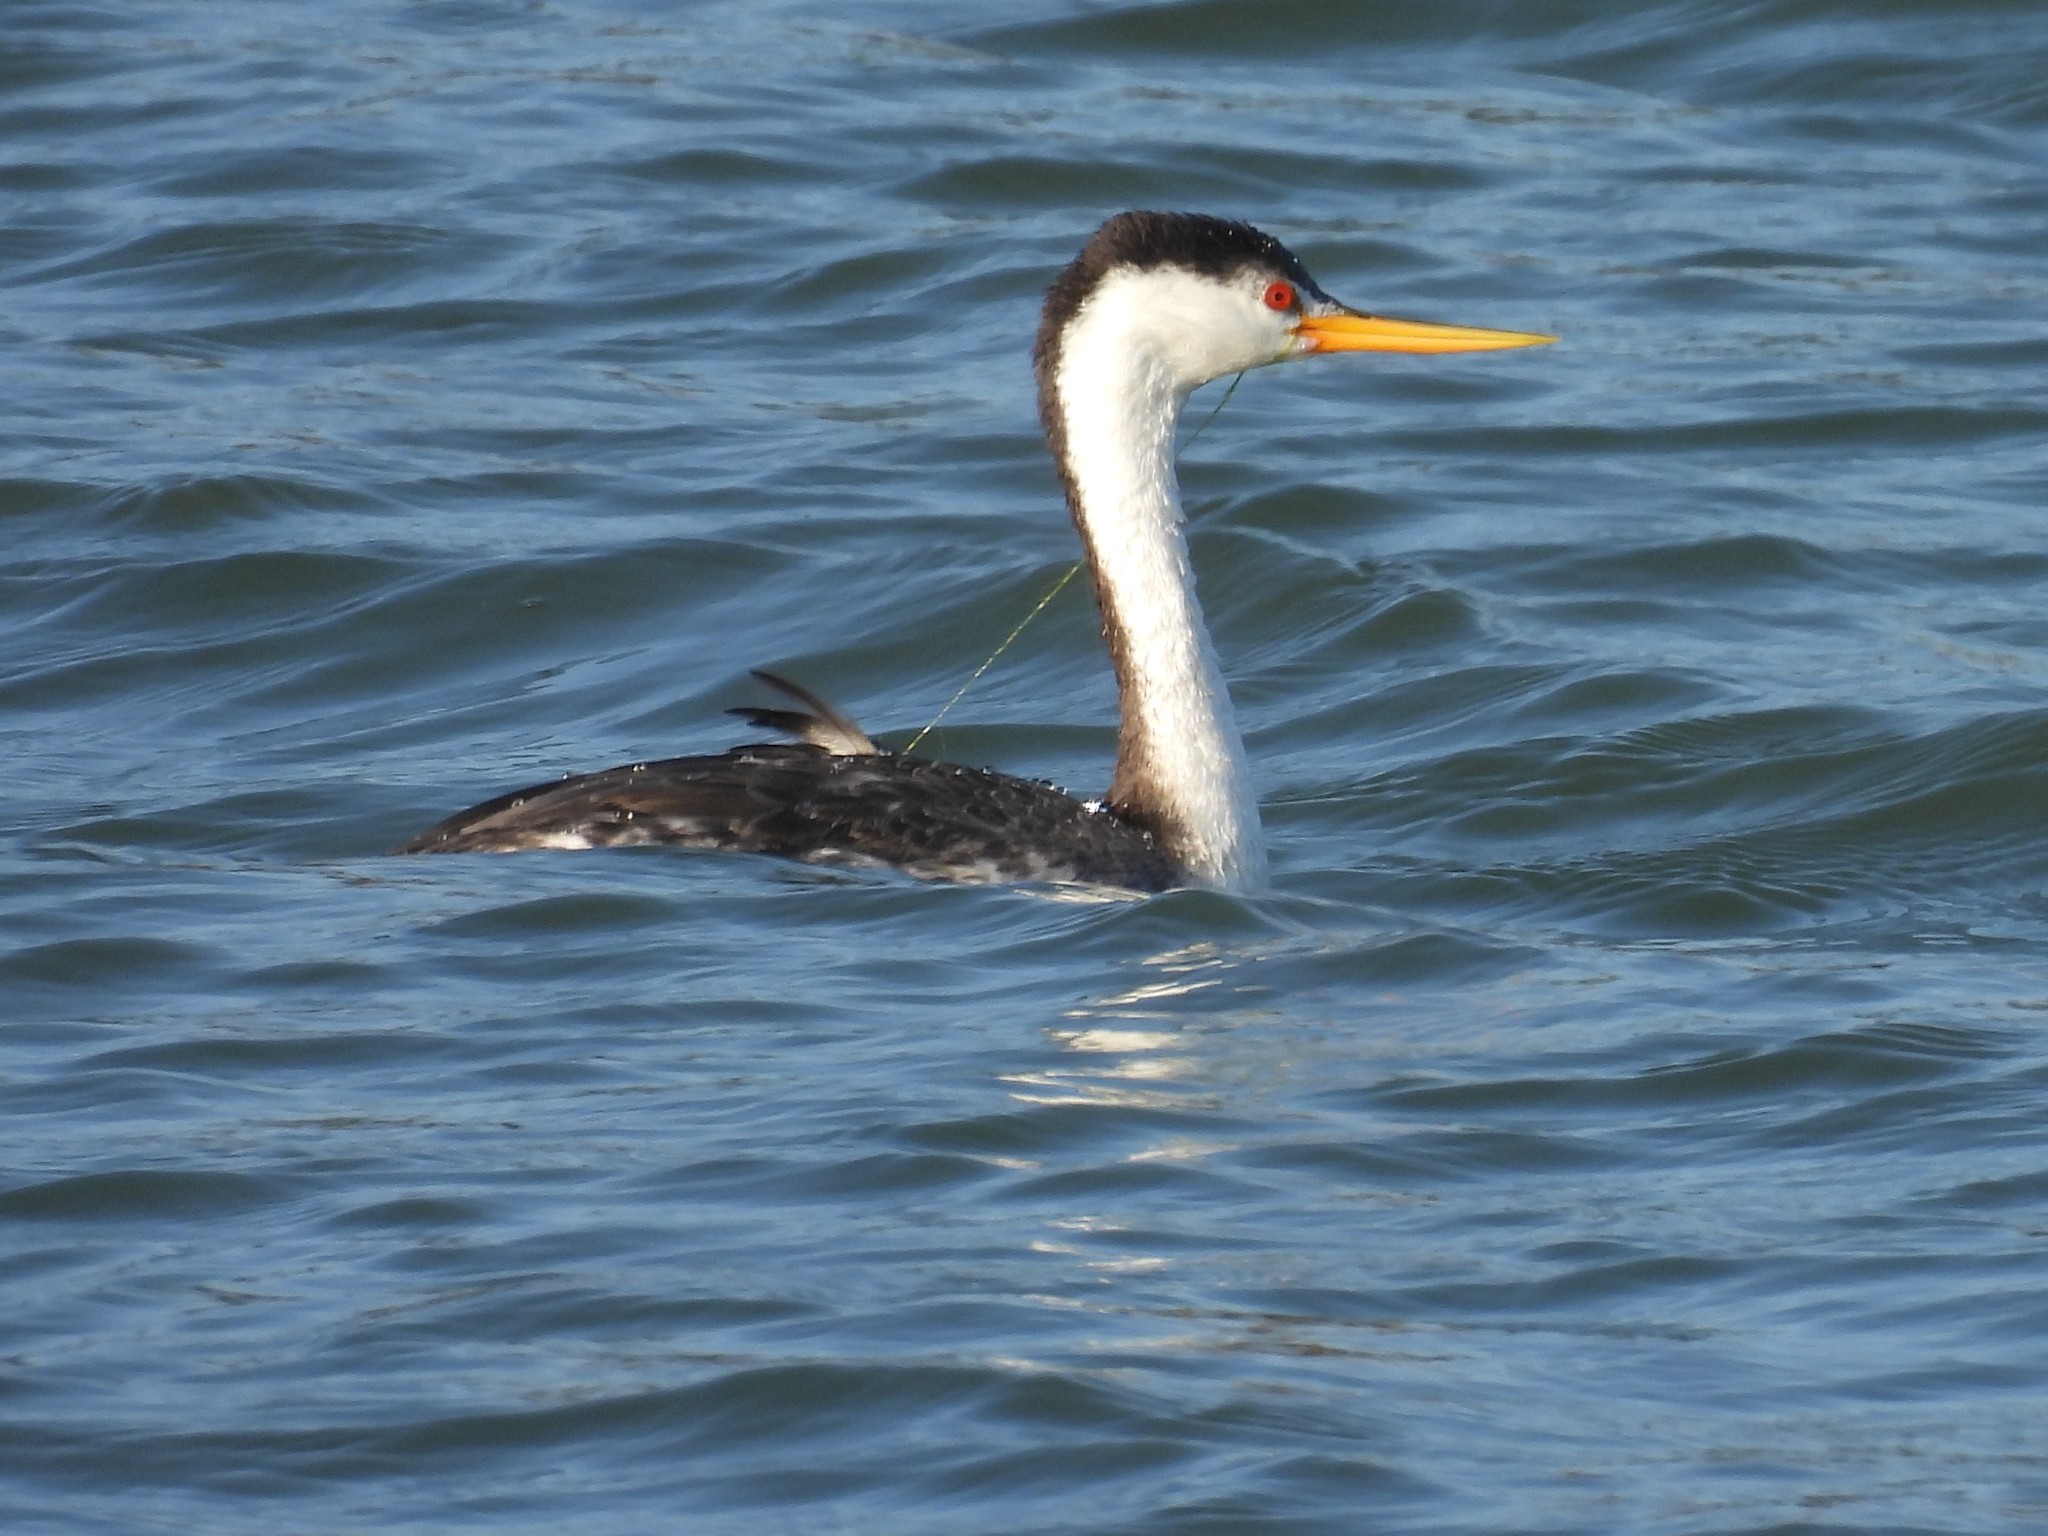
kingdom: Animalia
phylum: Chordata
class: Aves
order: Podicipediformes
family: Podicipedidae
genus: Aechmophorus
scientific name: Aechmophorus clarkii
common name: Clark's grebe
